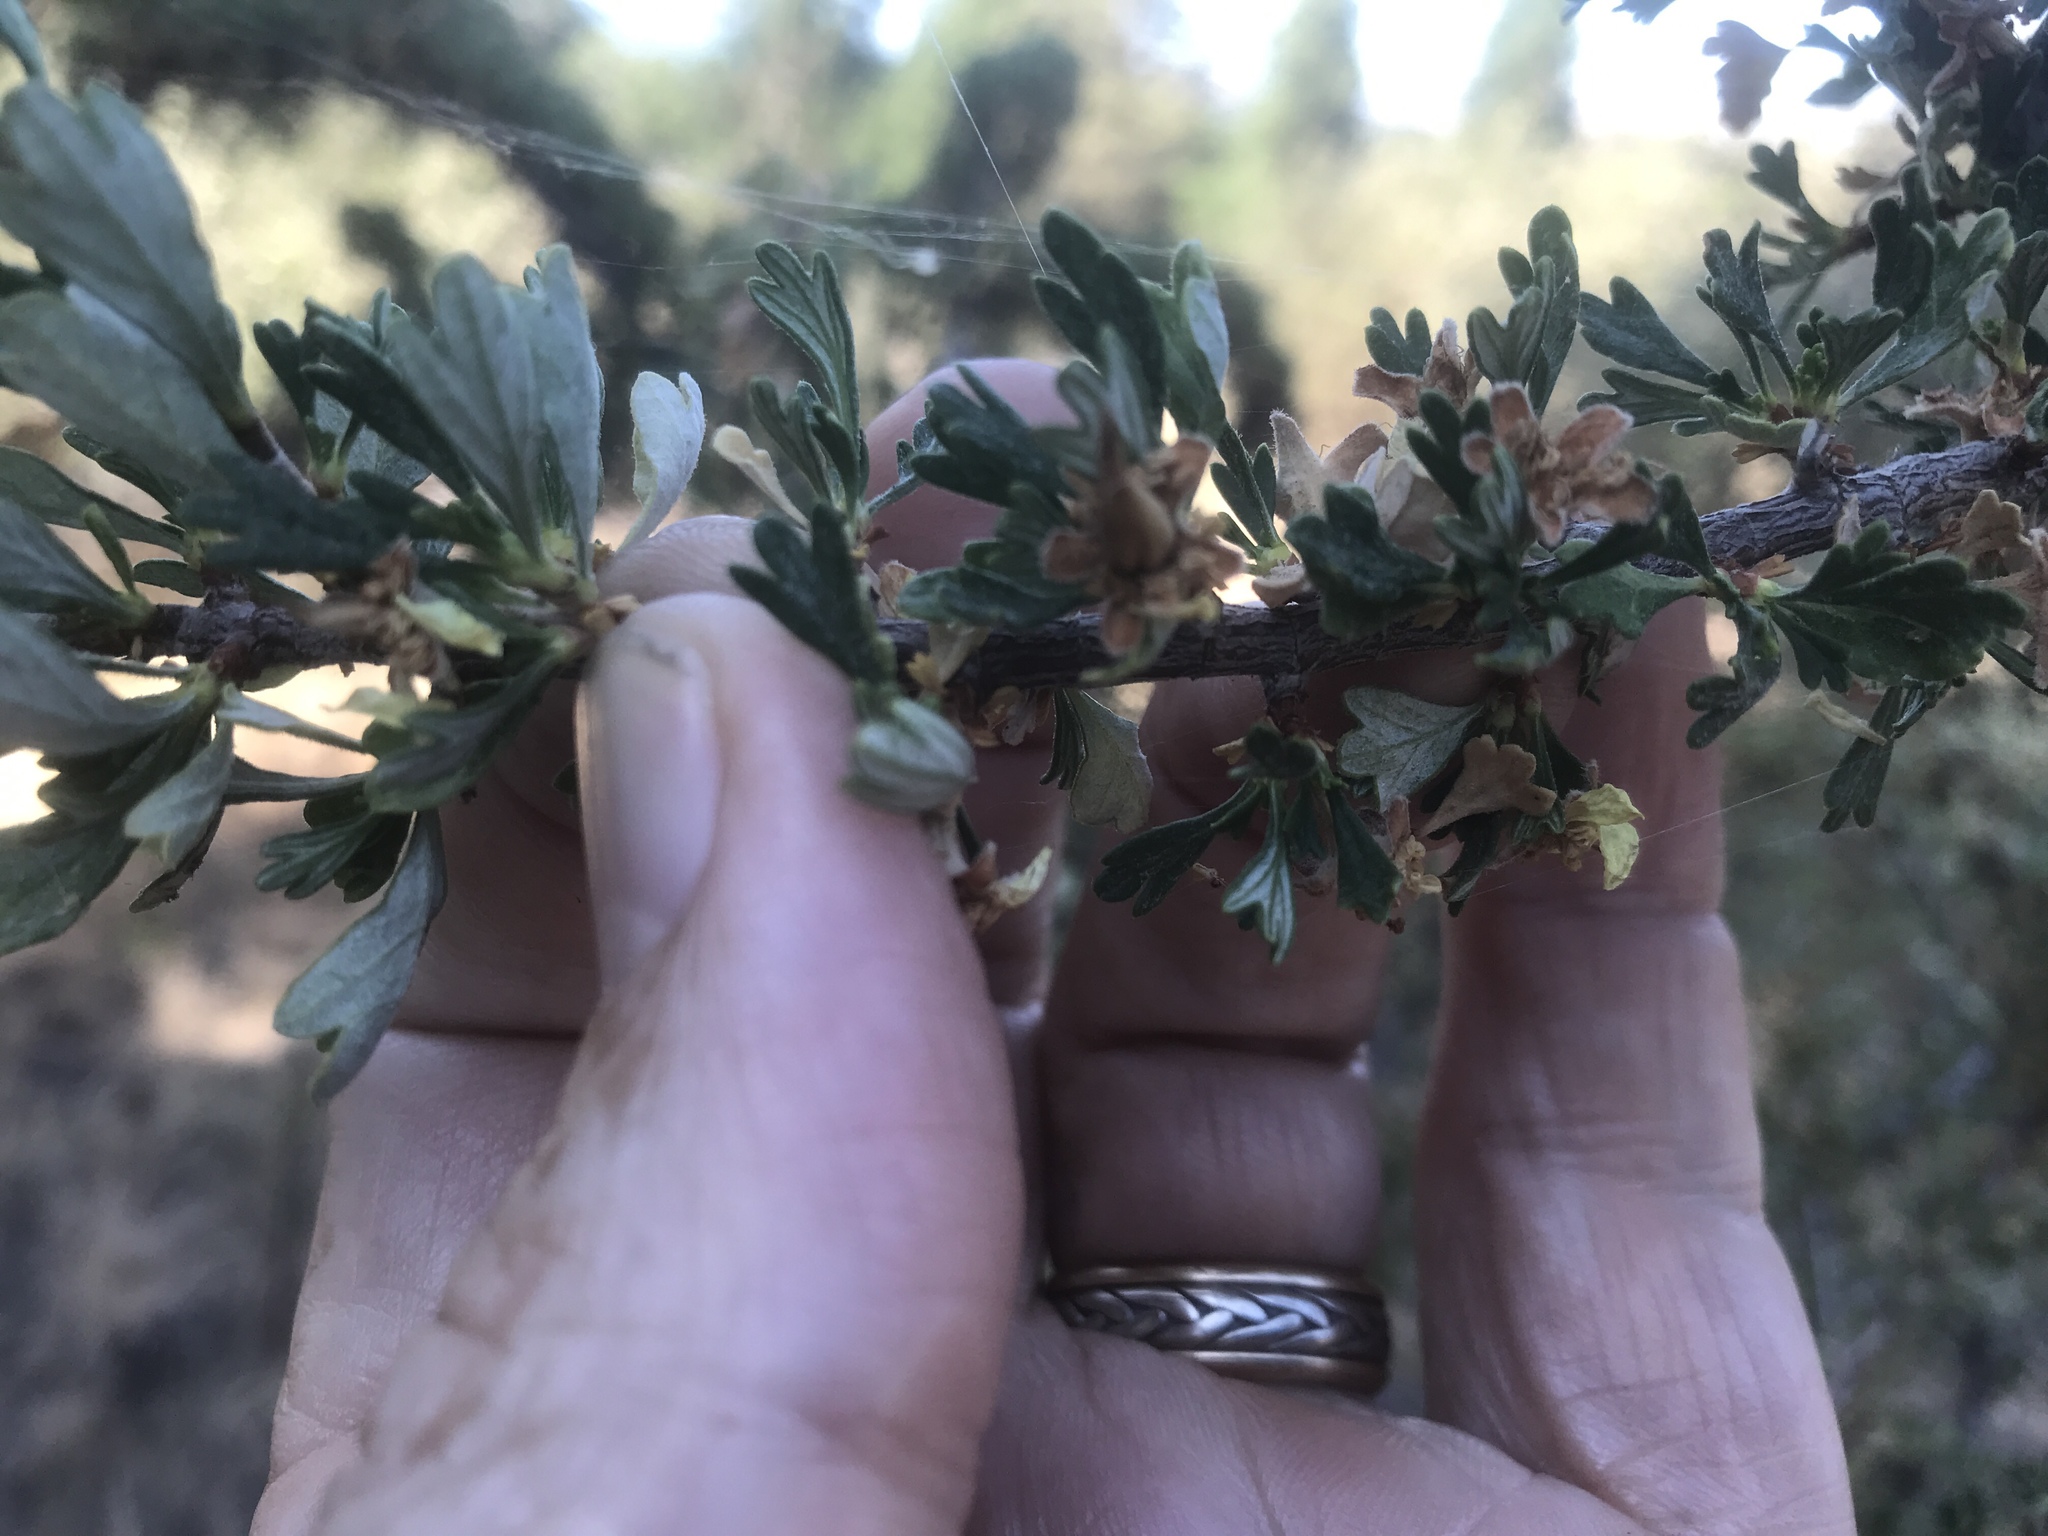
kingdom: Plantae
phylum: Tracheophyta
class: Magnoliopsida
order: Rosales
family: Rosaceae
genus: Purshia
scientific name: Purshia tridentata
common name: Antelope bitterbrush
